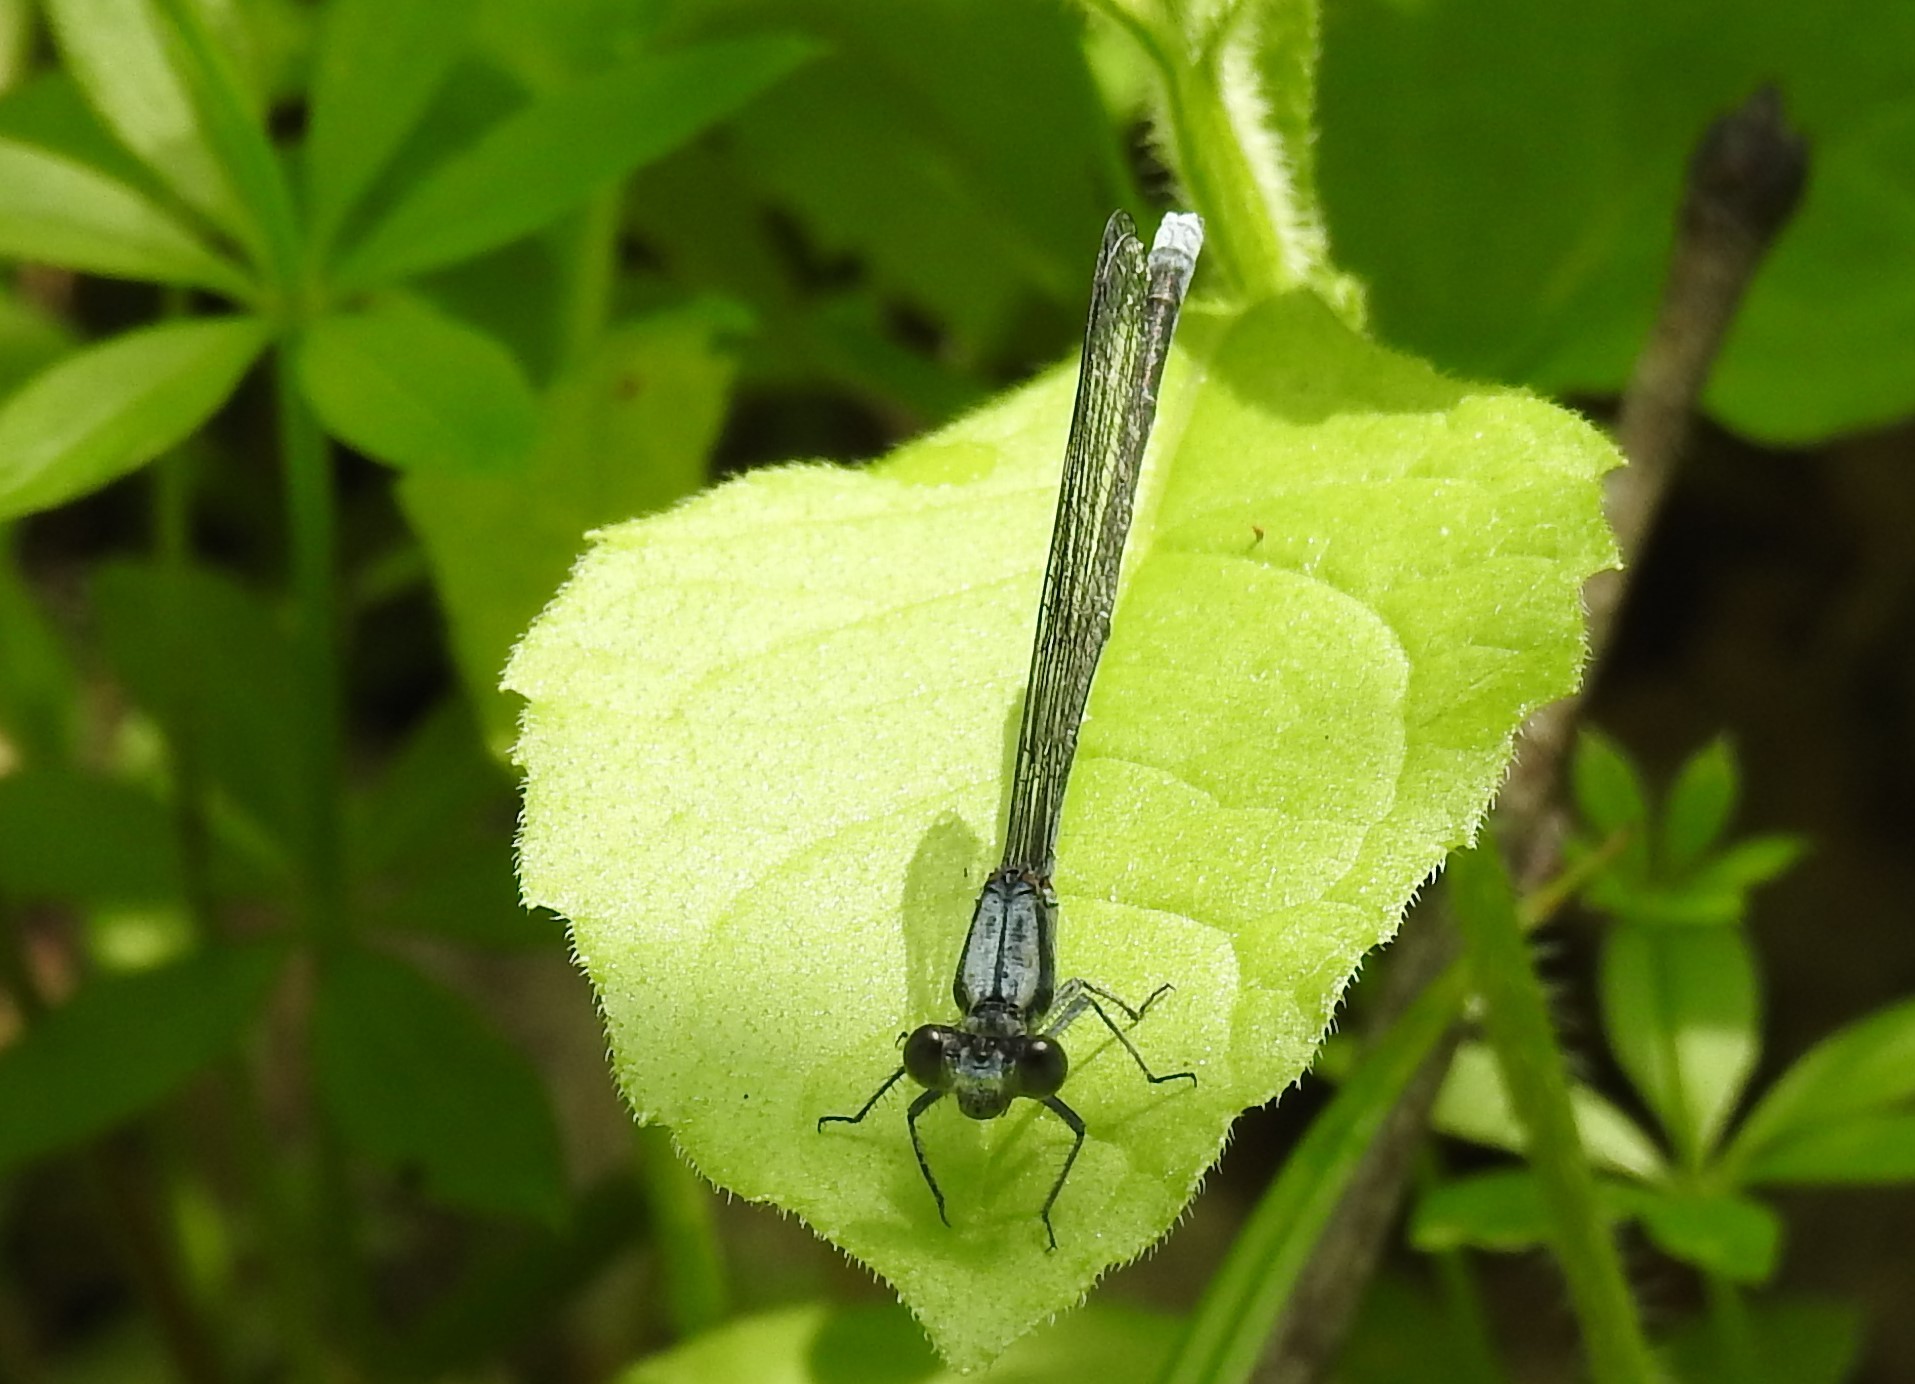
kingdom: Animalia
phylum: Arthropoda
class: Insecta
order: Odonata
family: Coenagrionidae
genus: Argia
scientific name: Argia moesta
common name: Powdered dancer
